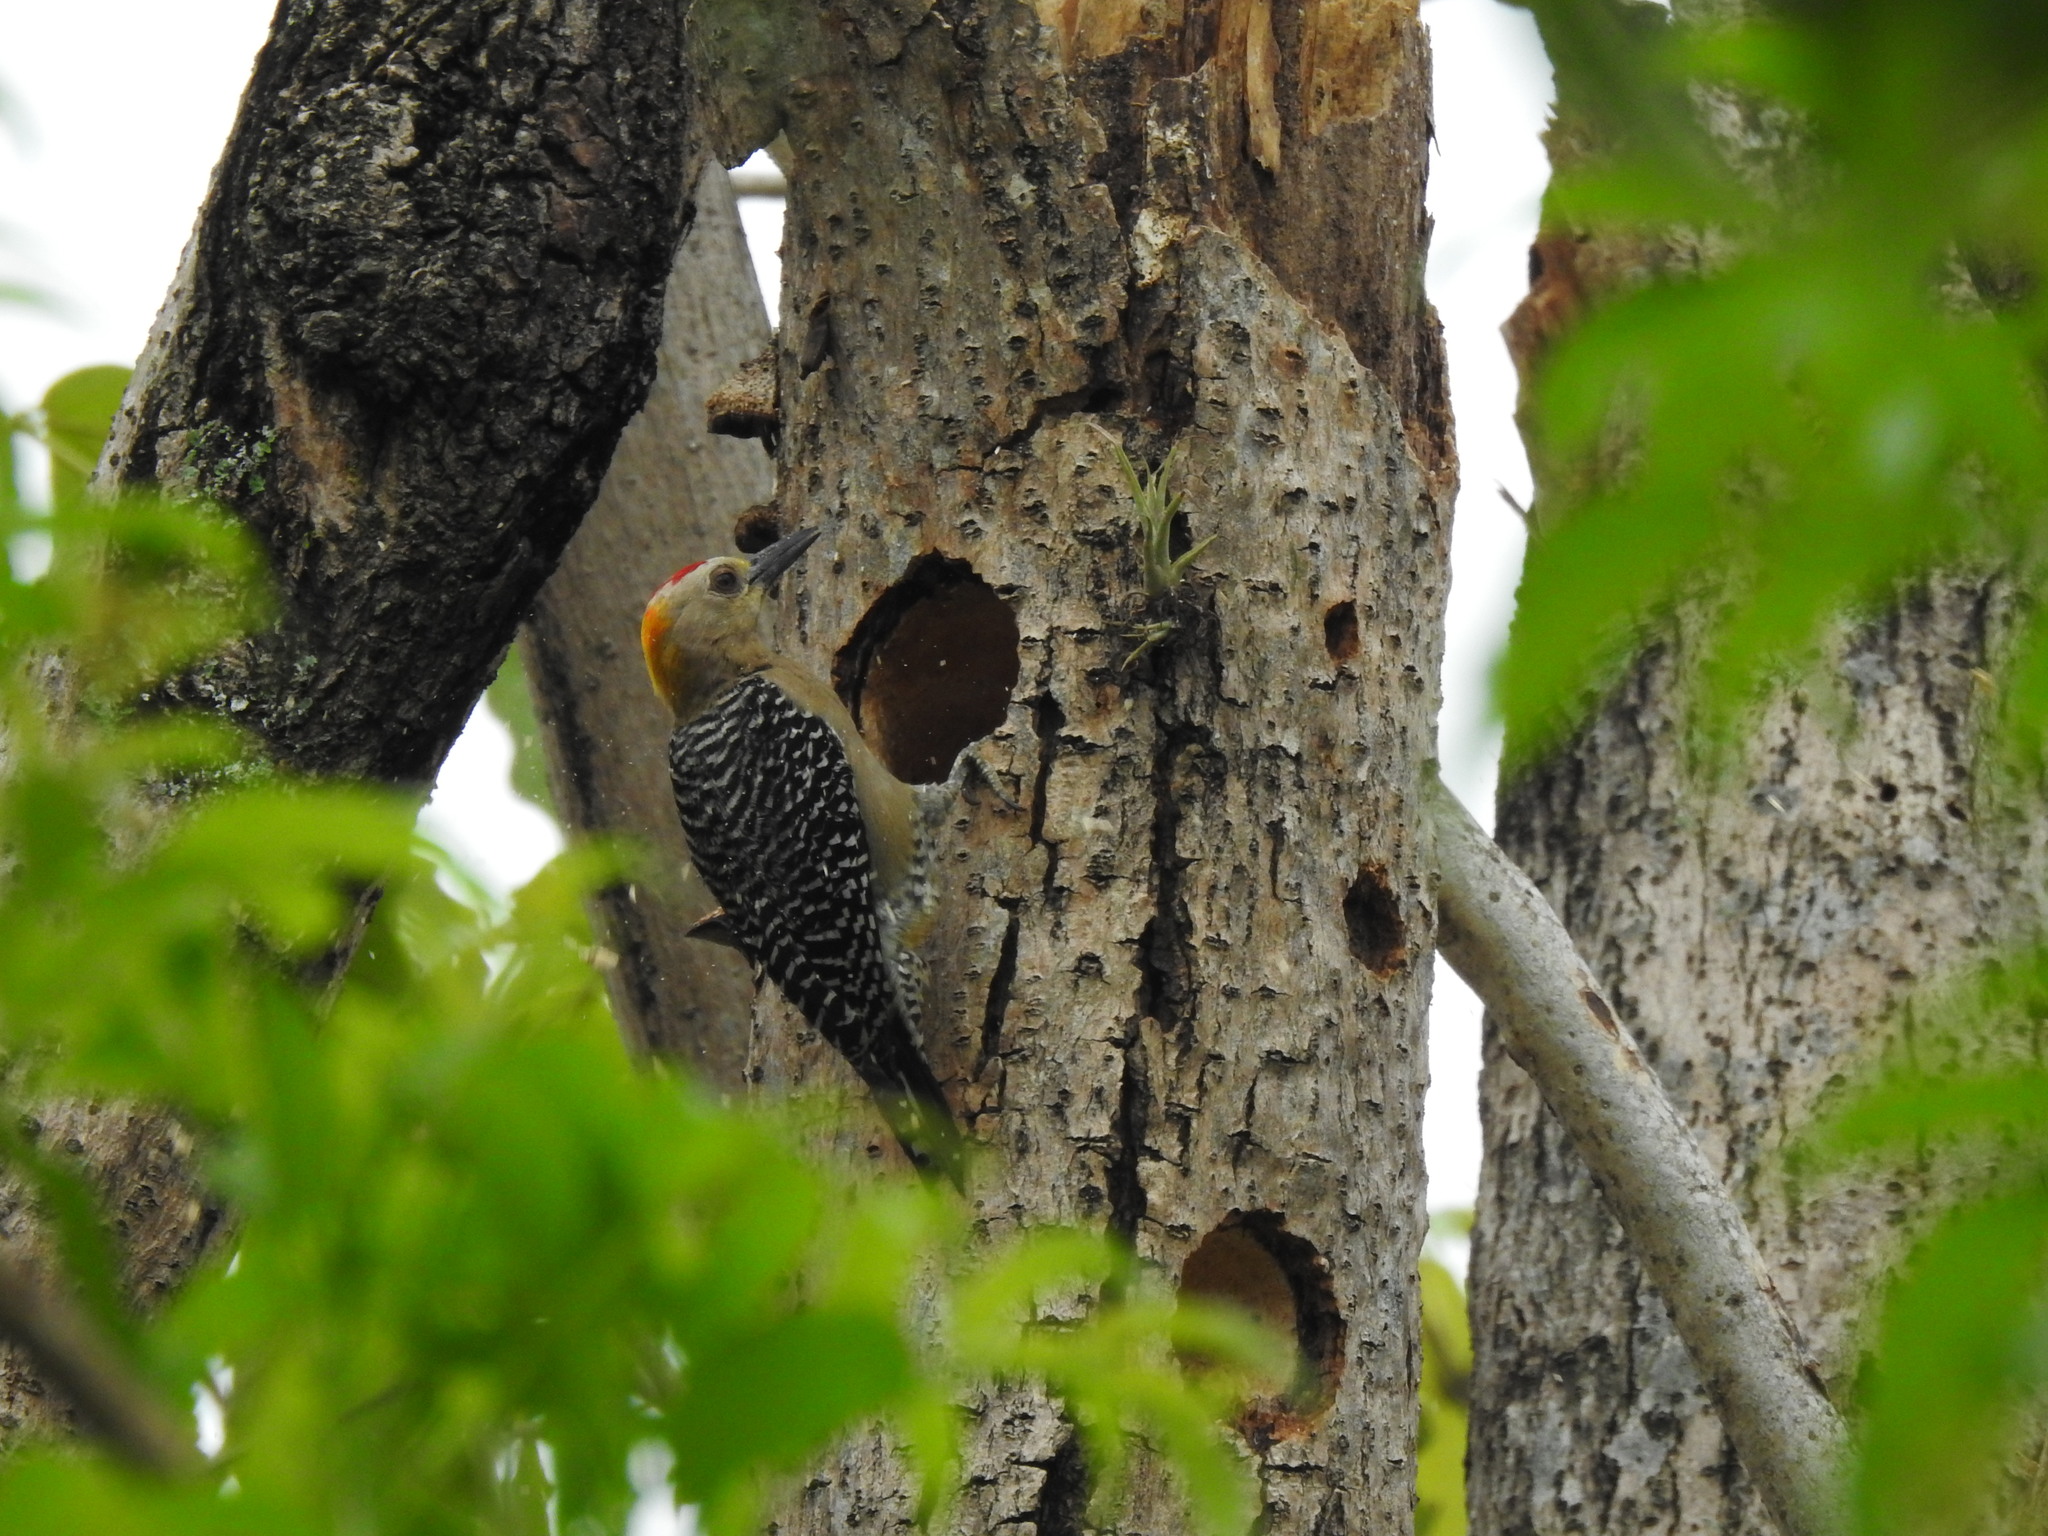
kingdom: Animalia
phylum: Chordata
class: Aves
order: Piciformes
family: Picidae
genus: Melanerpes
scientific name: Melanerpes hoffmannii
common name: Hoffmann's woodpecker
